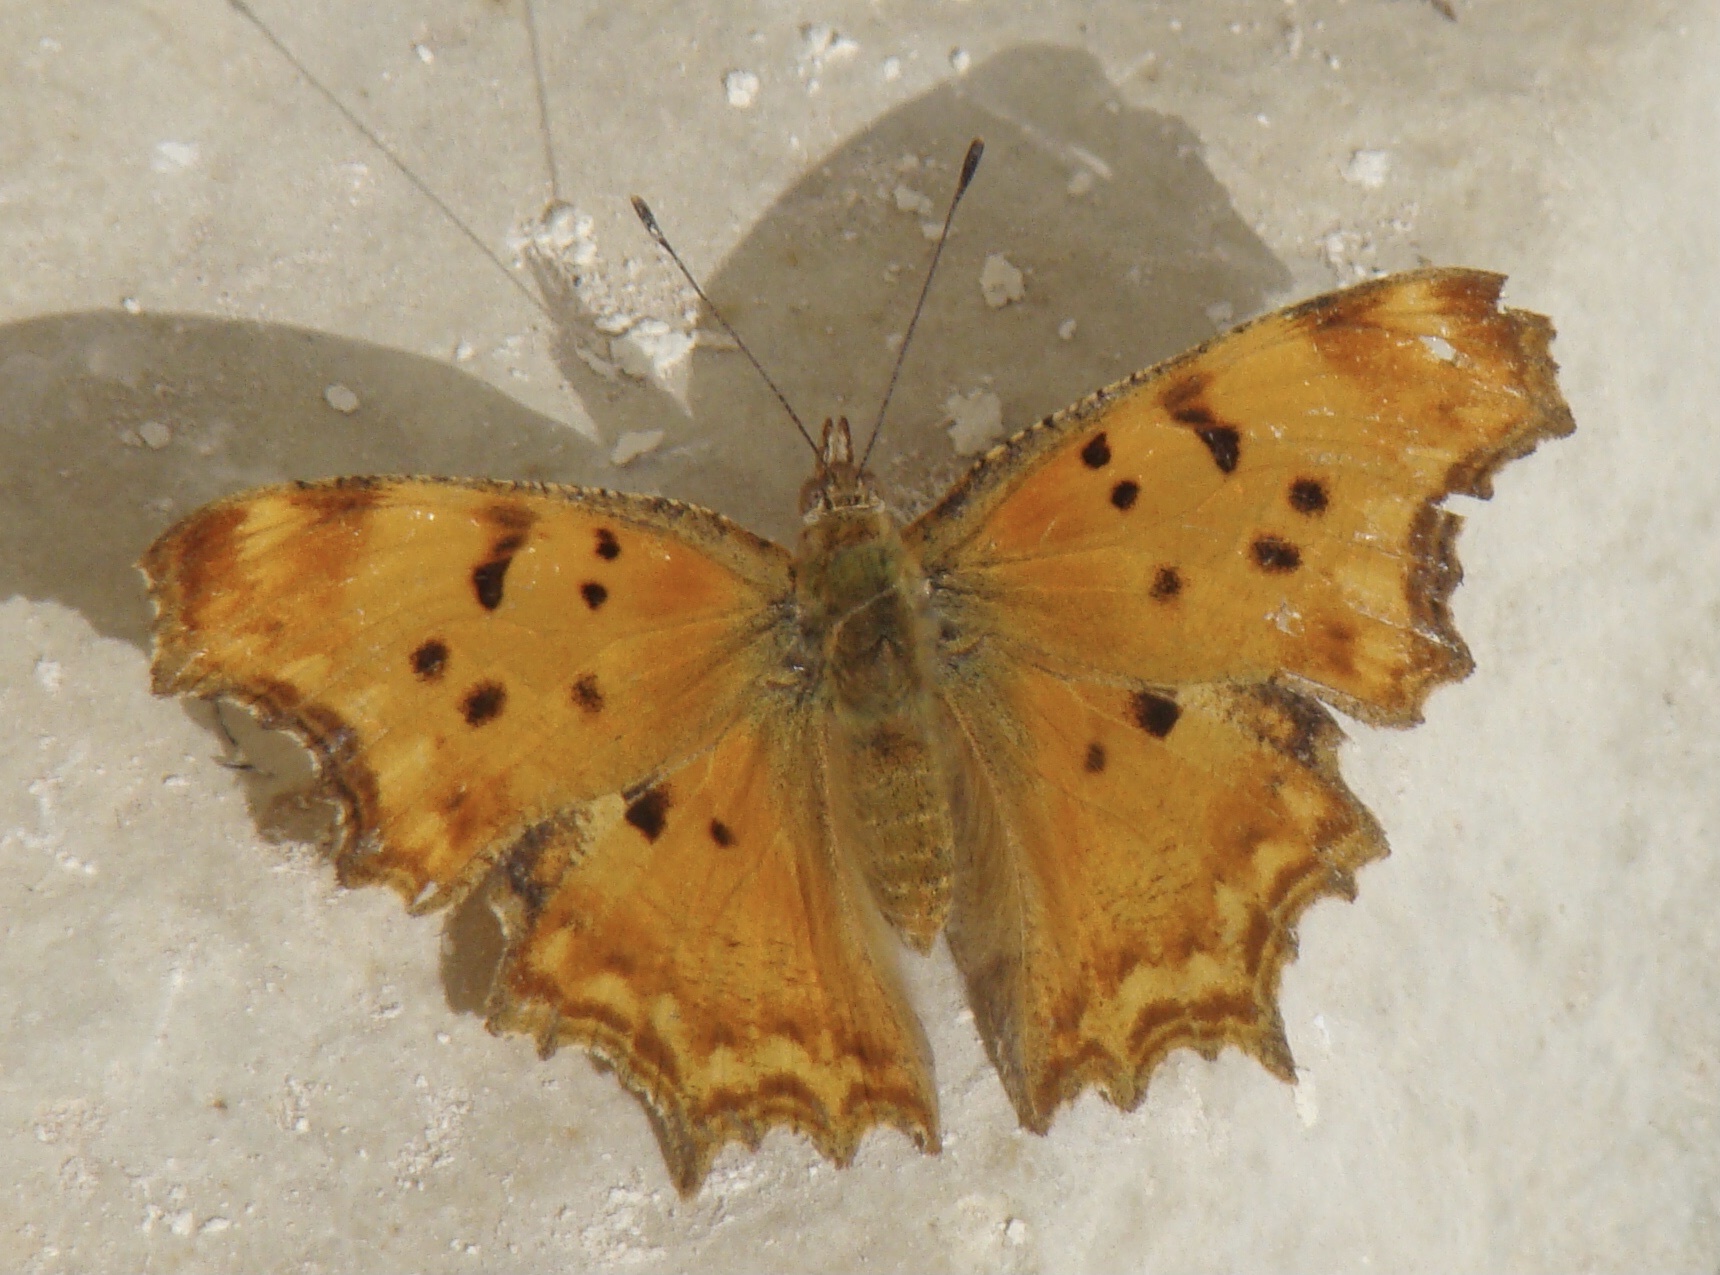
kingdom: Animalia
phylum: Arthropoda
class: Insecta
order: Lepidoptera
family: Nymphalidae
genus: Polygonia
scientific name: Polygonia egea
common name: Southern comma
